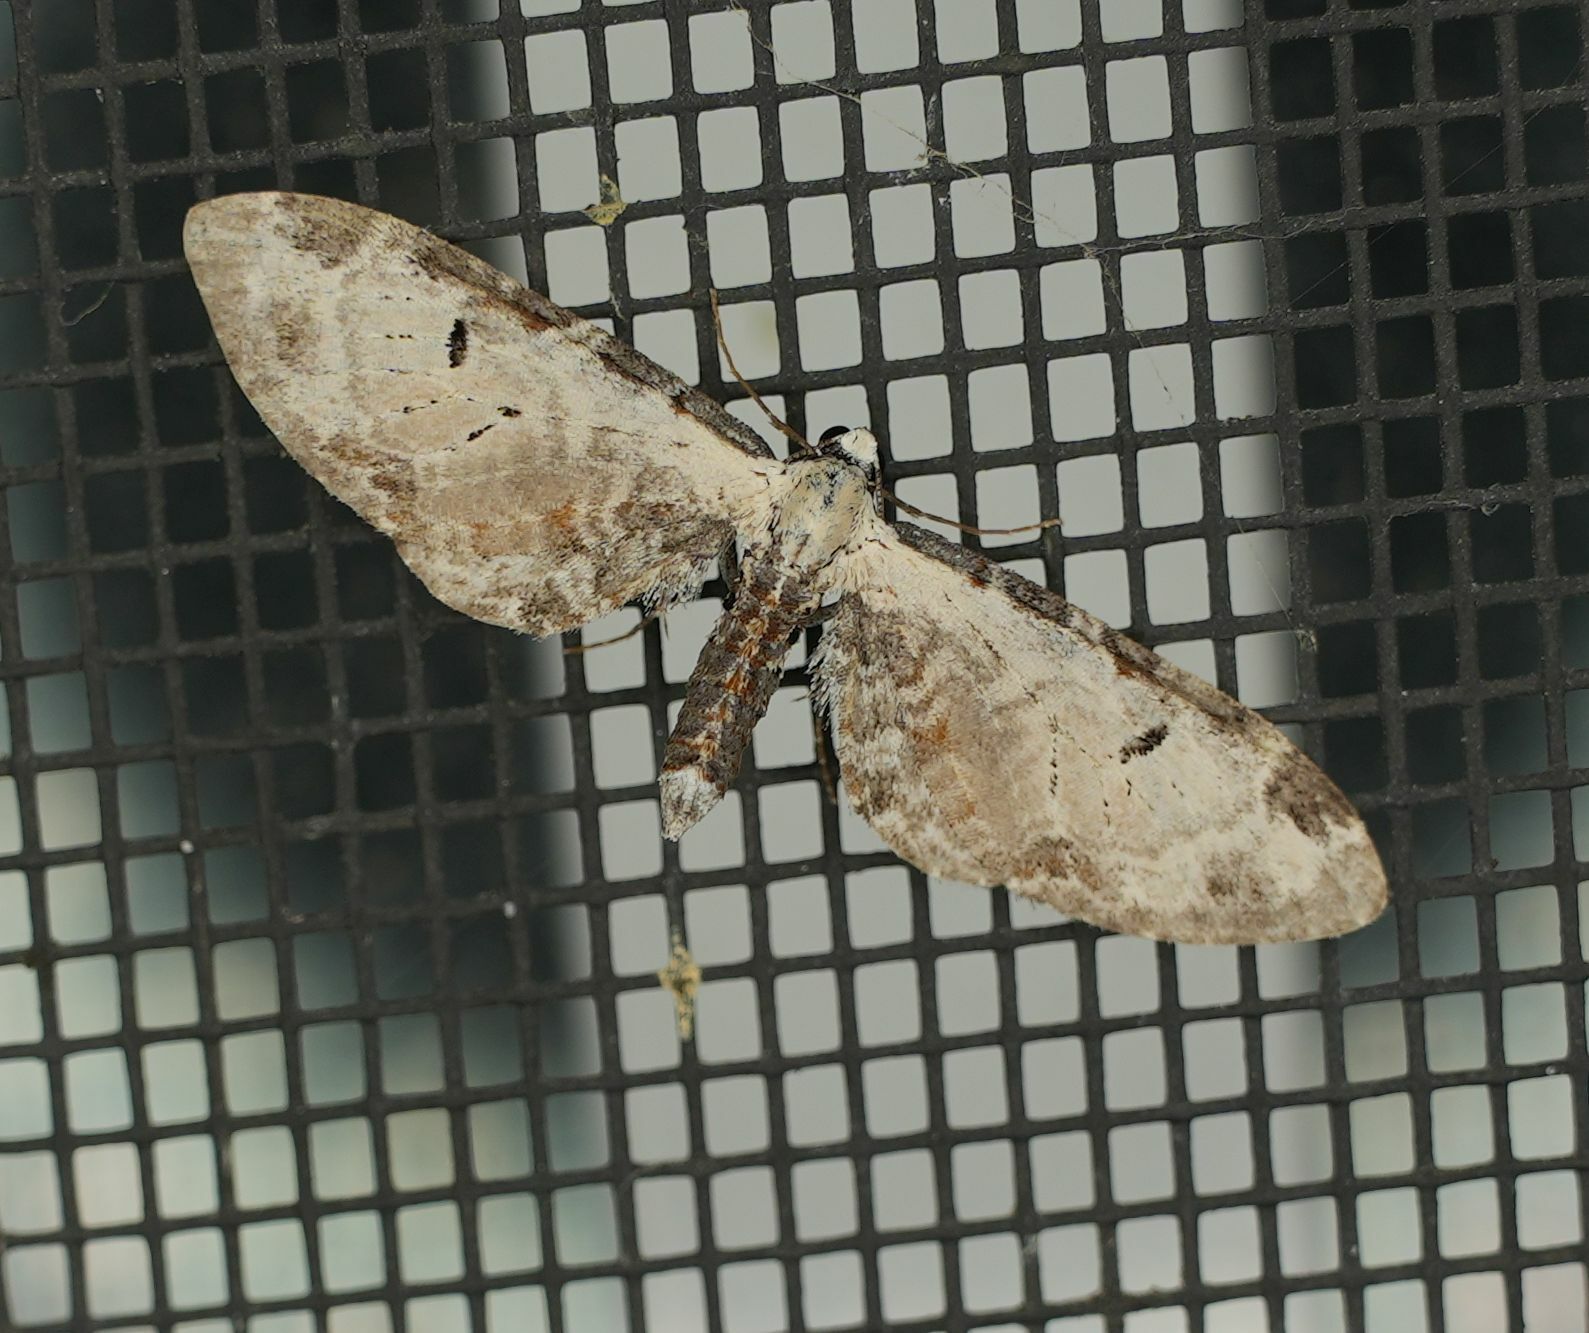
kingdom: Animalia
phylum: Arthropoda
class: Insecta
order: Lepidoptera
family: Geometridae
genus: Eupithecia
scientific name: Eupithecia ravocostaliata
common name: Great varigated pug
